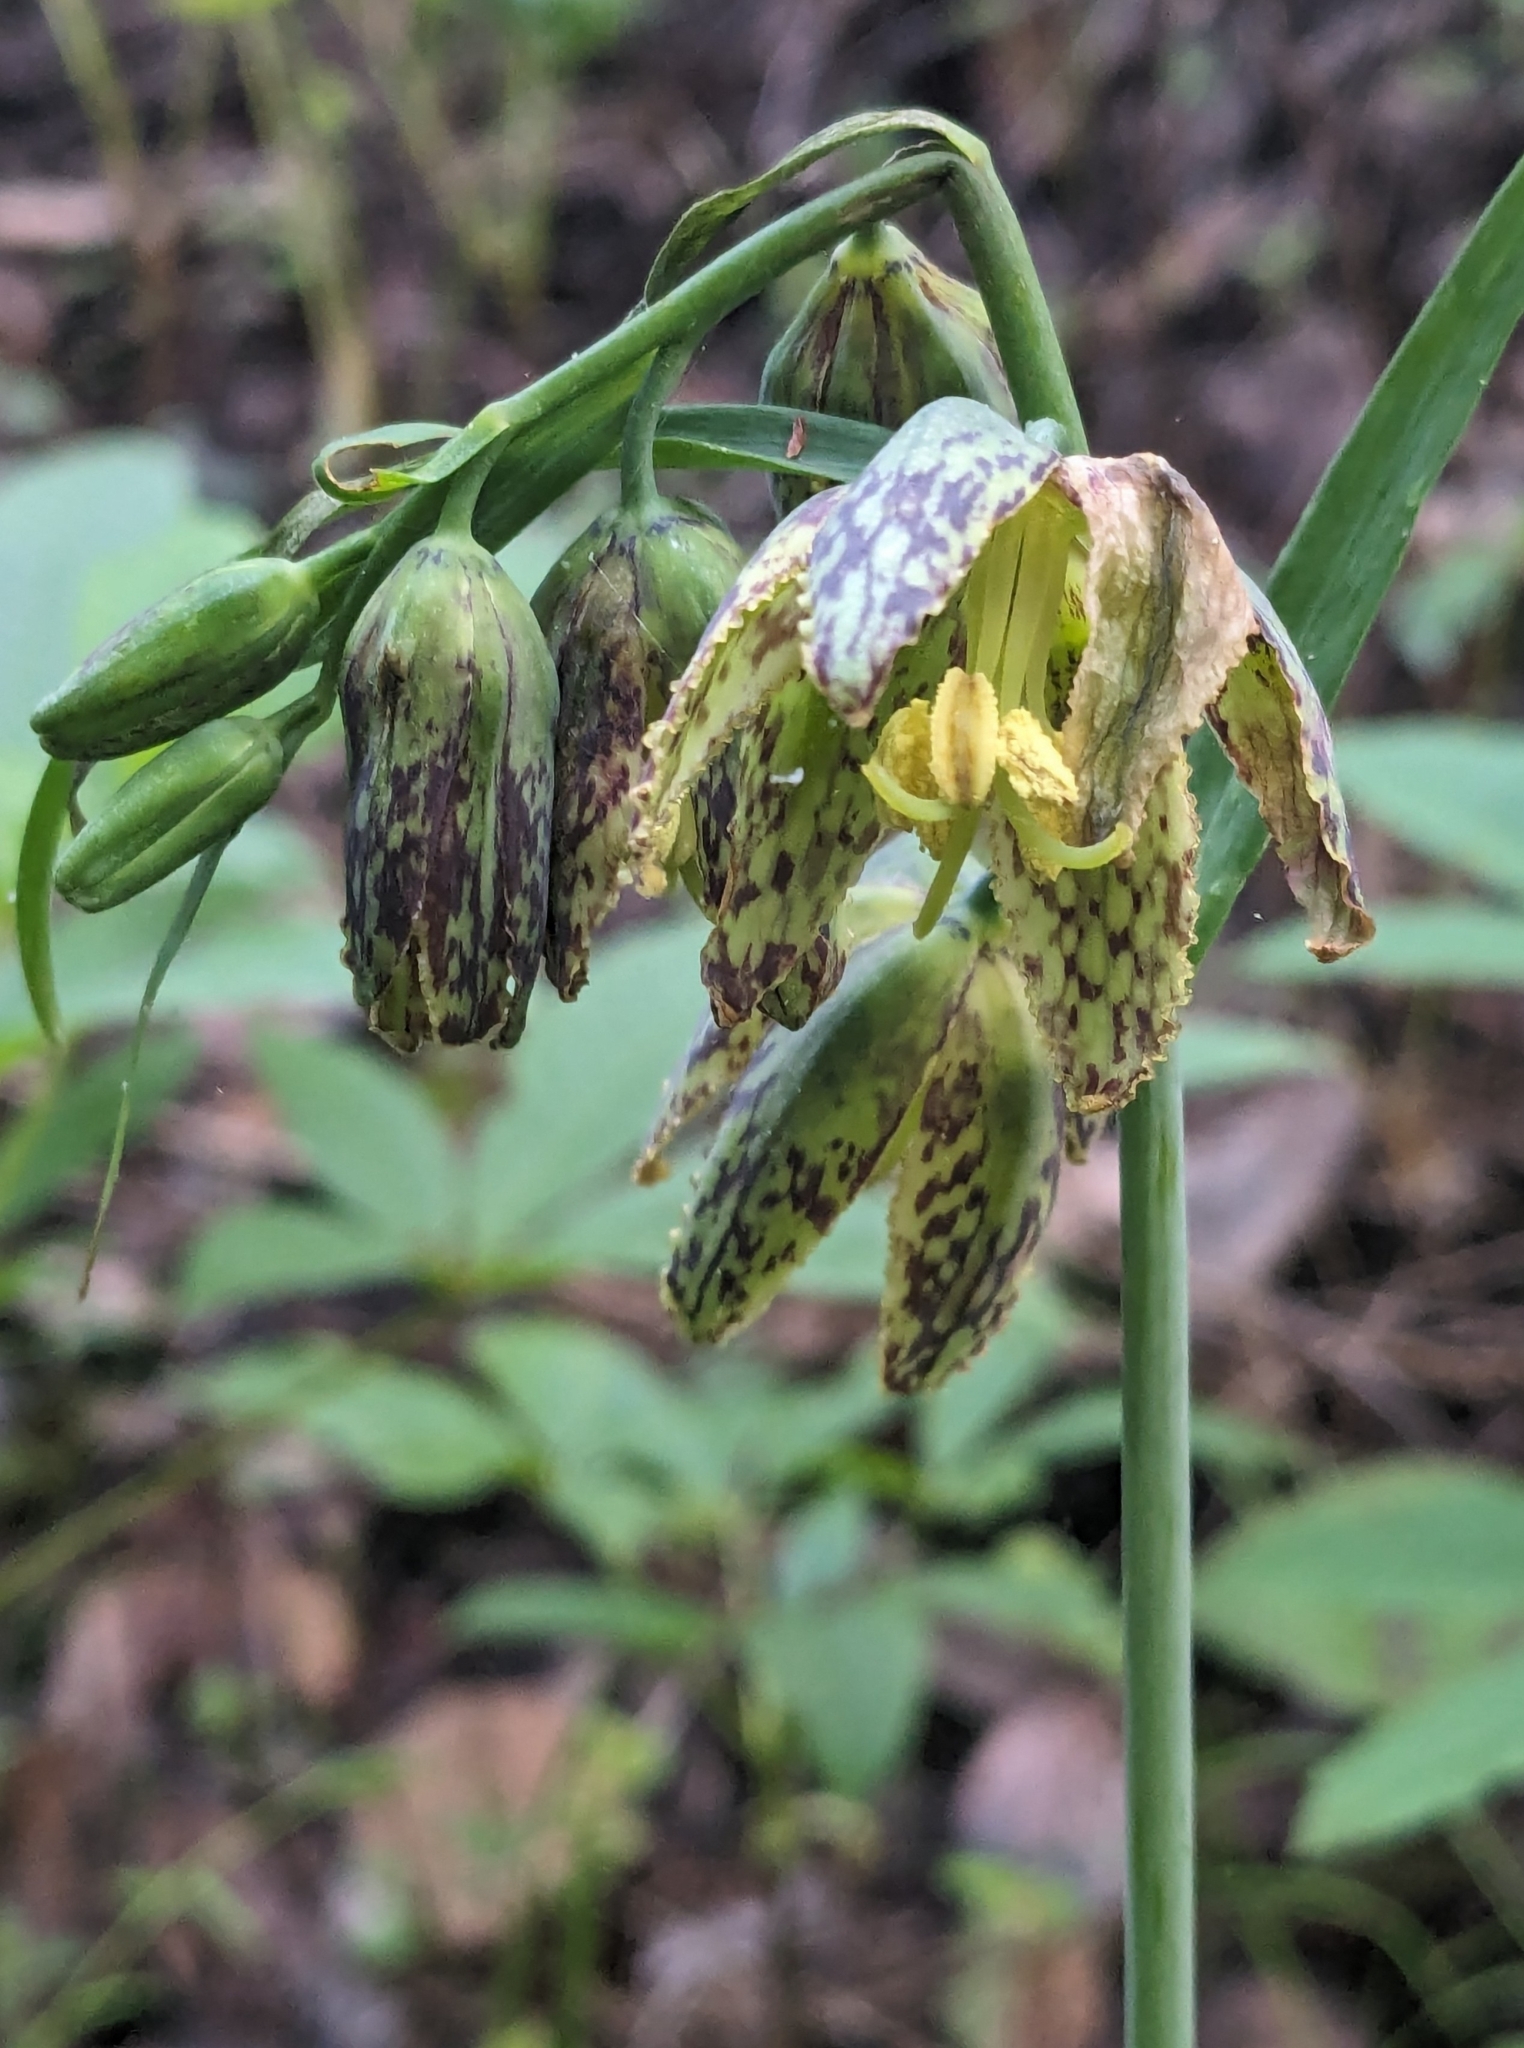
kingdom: Plantae
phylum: Tracheophyta
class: Liliopsida
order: Liliales
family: Liliaceae
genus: Fritillaria
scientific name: Fritillaria affinis
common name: Ojai fritillary
